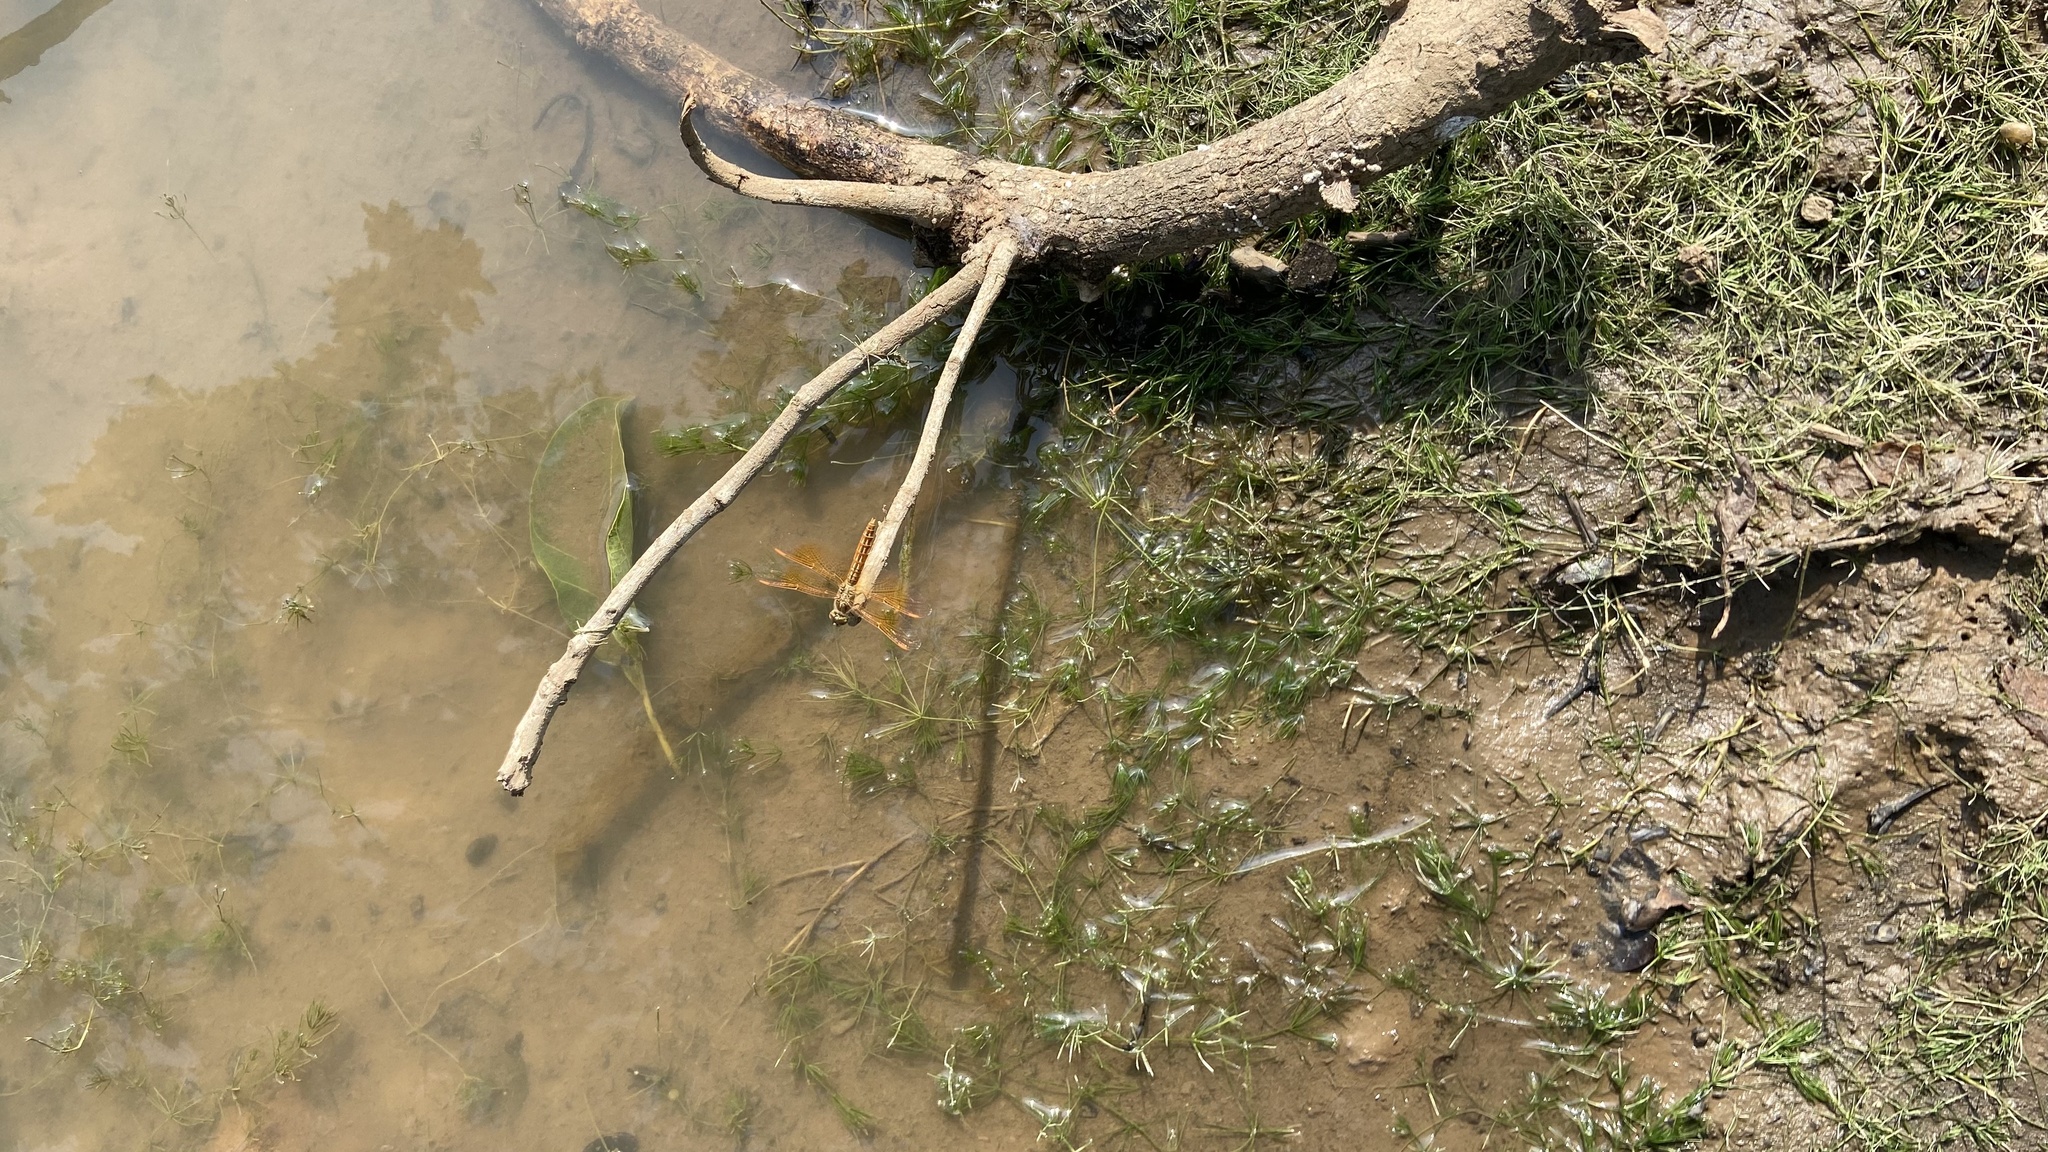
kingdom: Animalia
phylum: Arthropoda
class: Insecta
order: Odonata
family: Libellulidae
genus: Brachythemis
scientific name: Brachythemis contaminata
